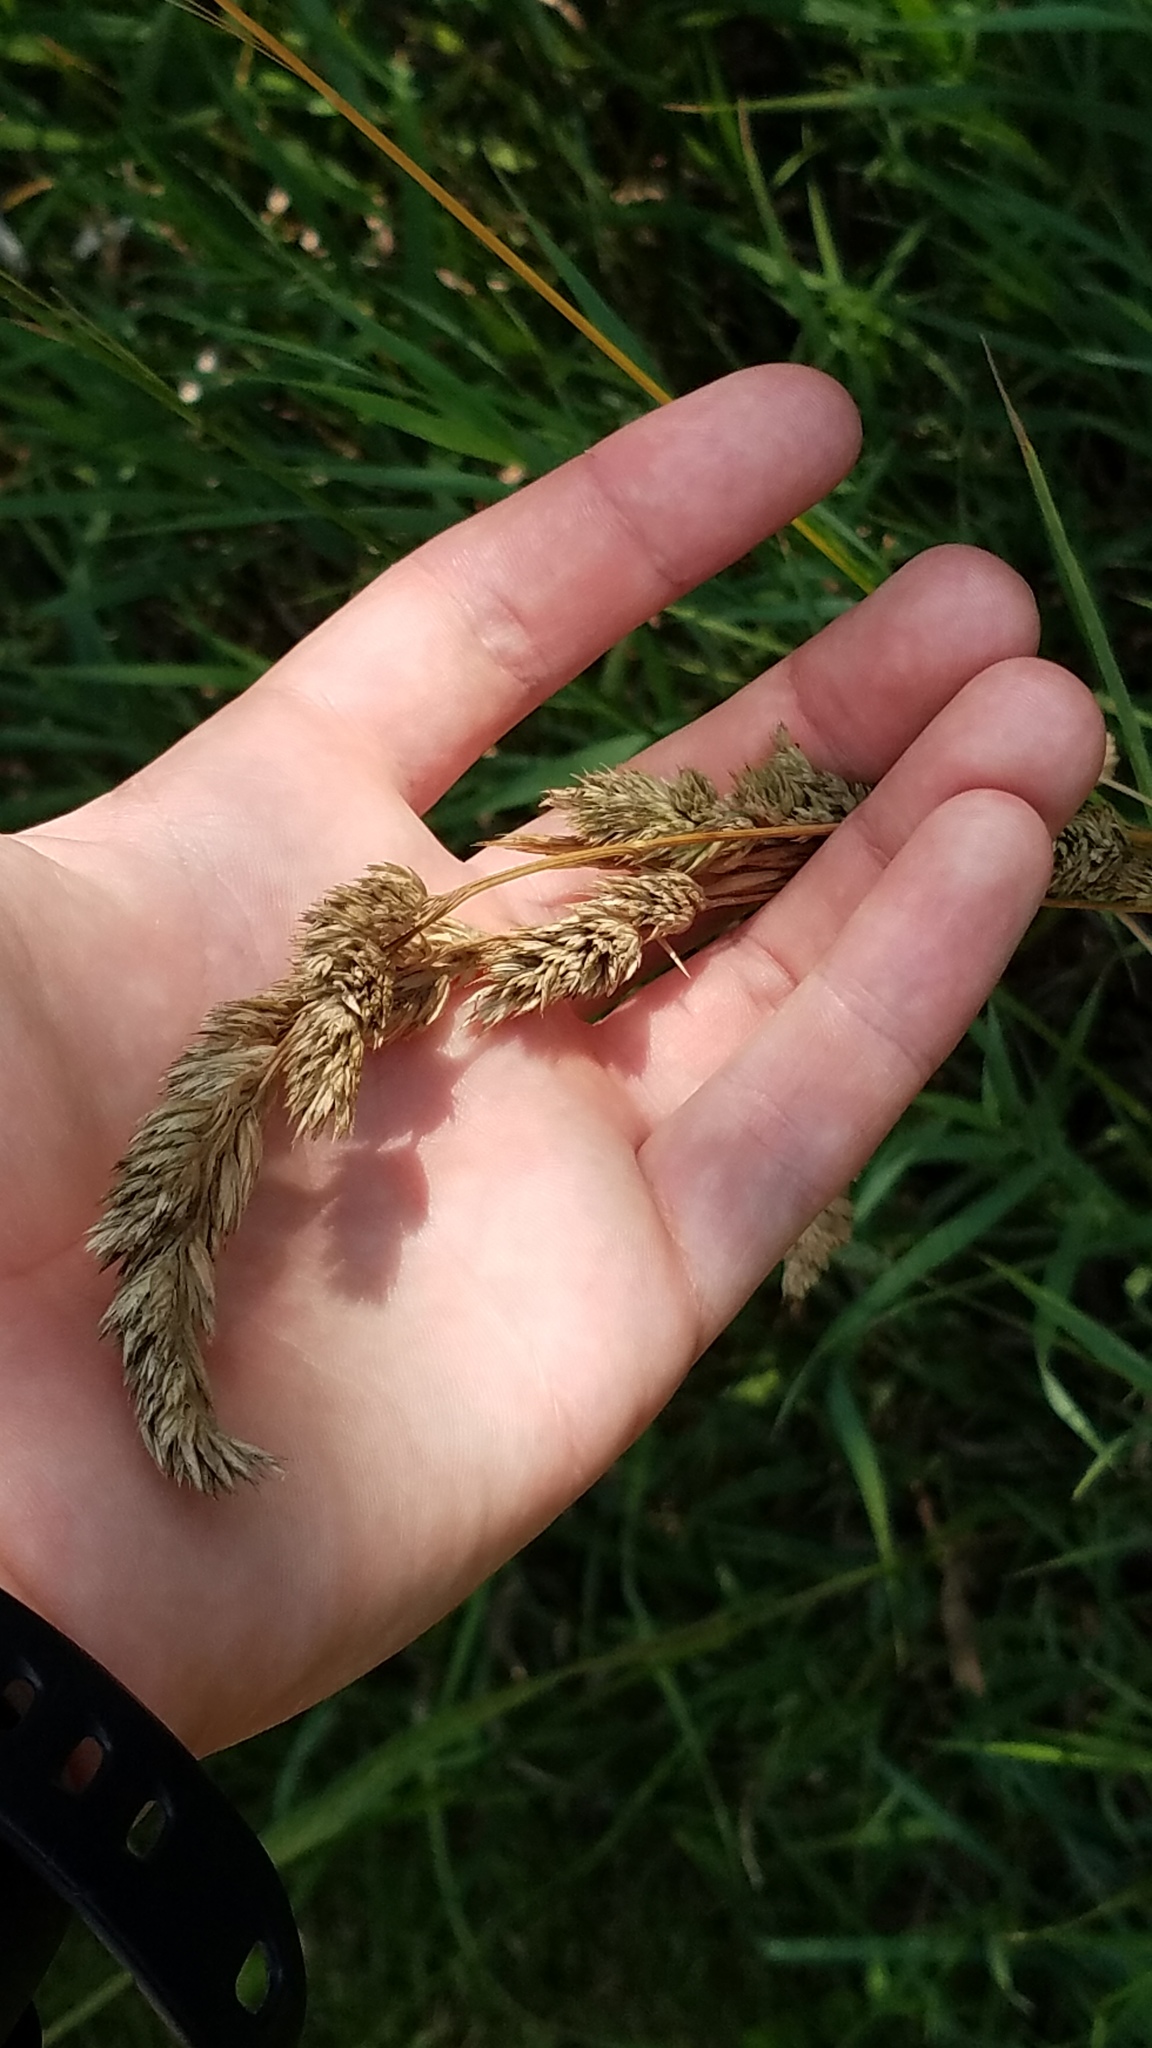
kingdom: Plantae
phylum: Tracheophyta
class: Liliopsida
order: Poales
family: Poaceae
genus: Dactylis
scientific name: Dactylis glomerata
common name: Orchardgrass
